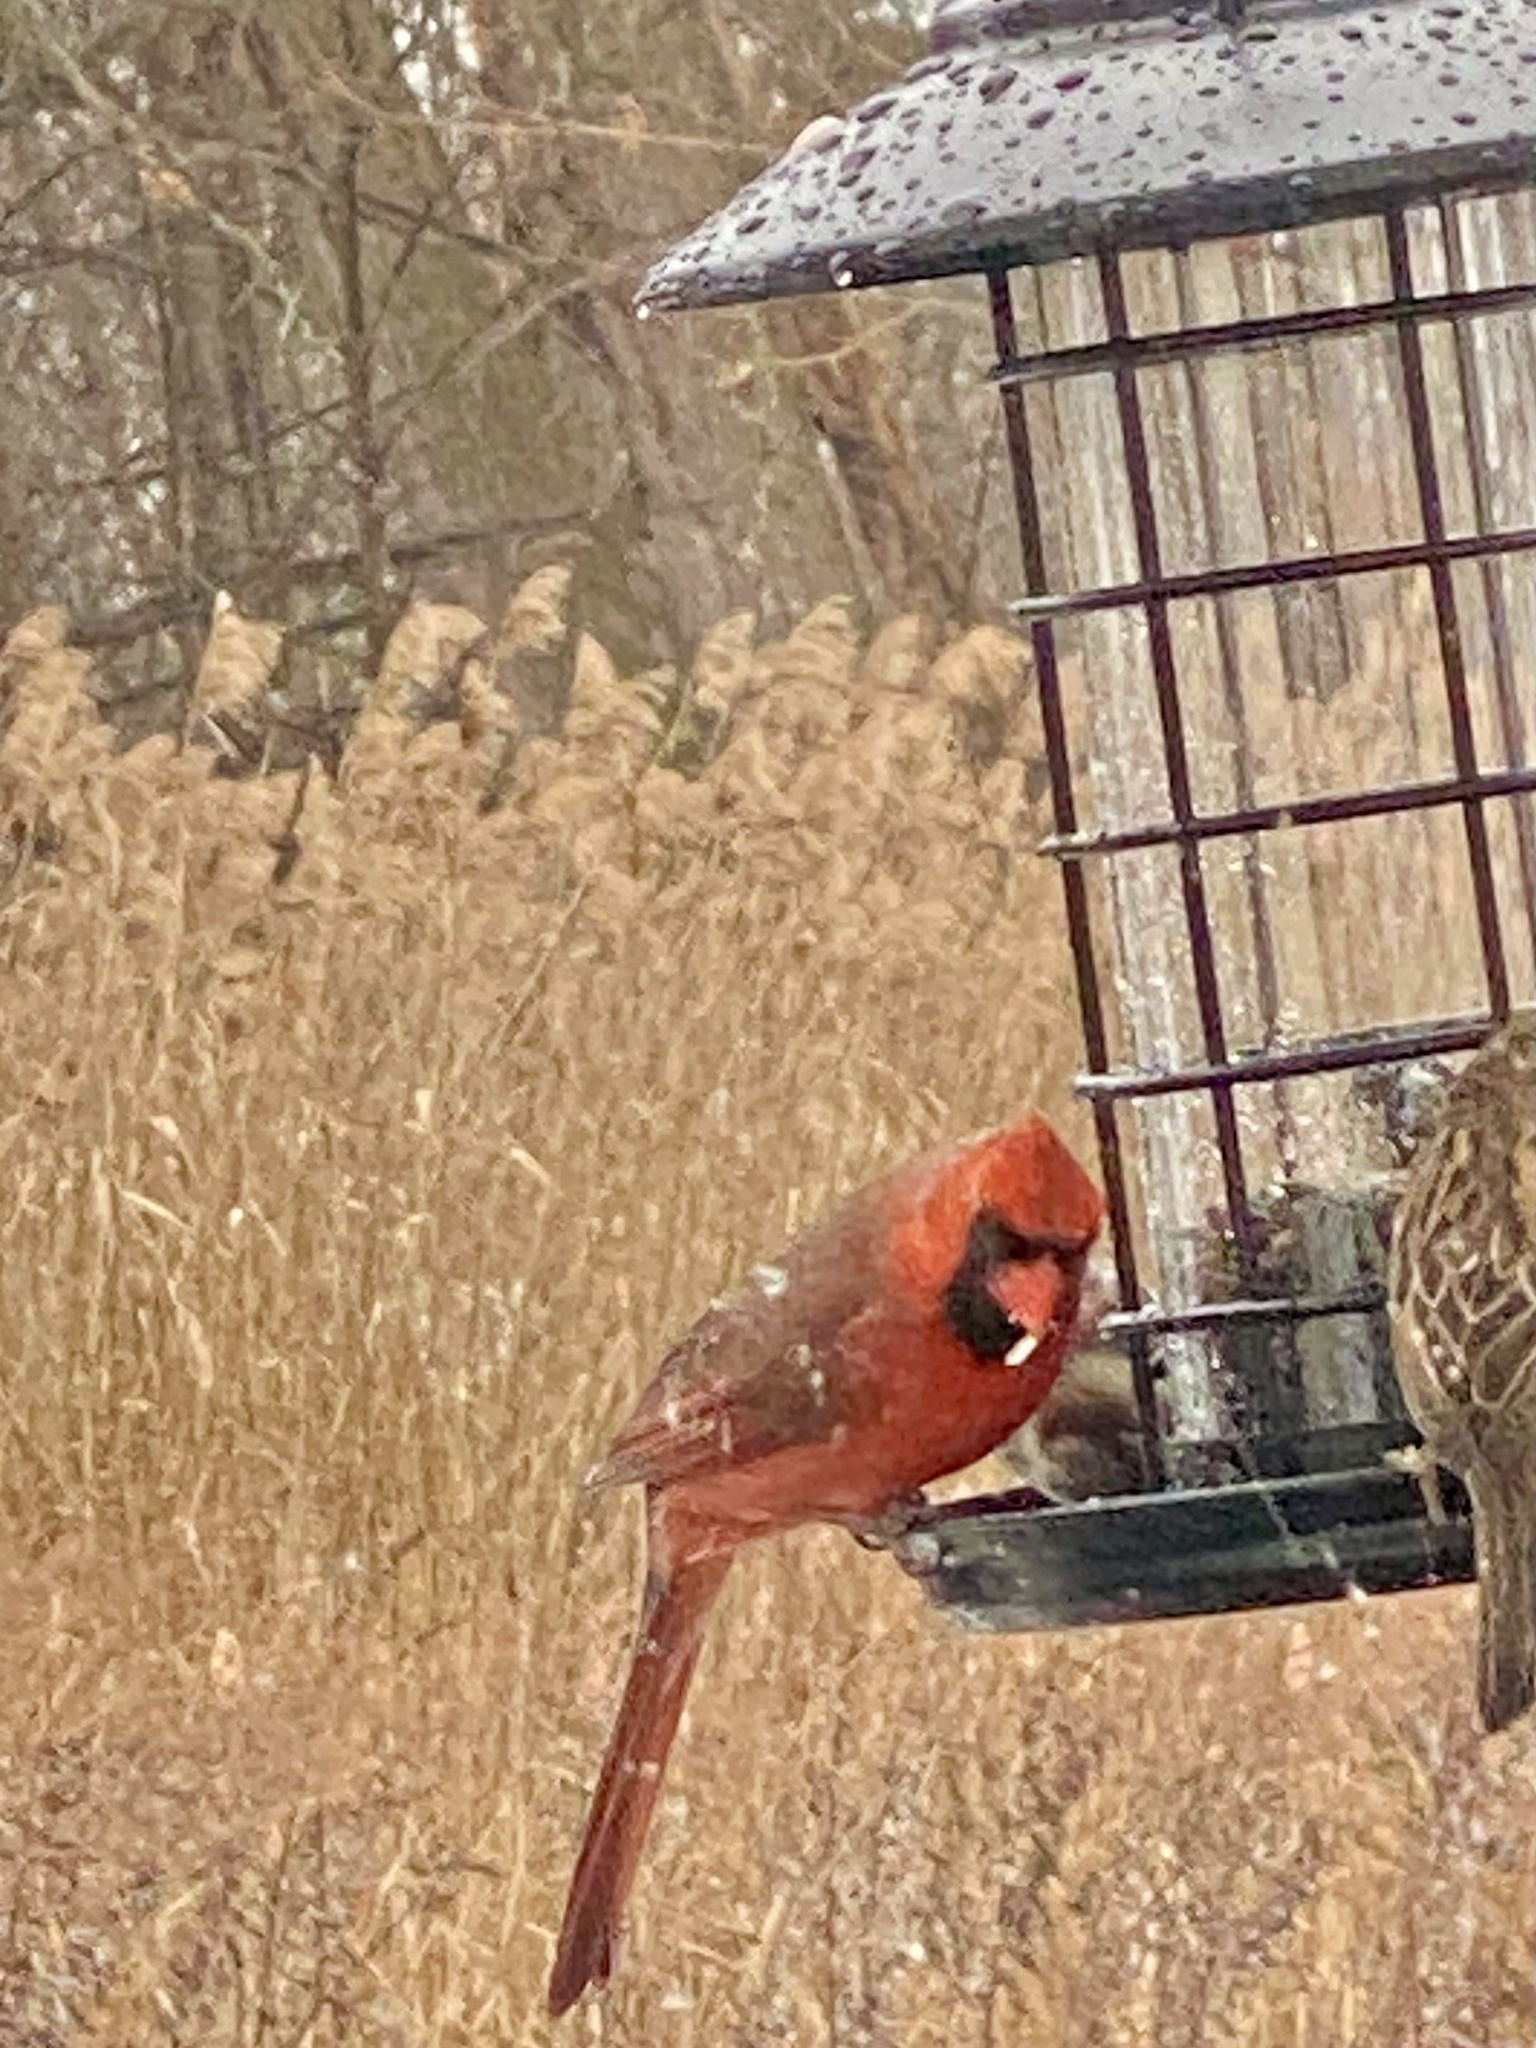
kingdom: Animalia
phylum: Chordata
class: Aves
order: Passeriformes
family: Cardinalidae
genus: Cardinalis
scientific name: Cardinalis cardinalis
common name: Northern cardinal
